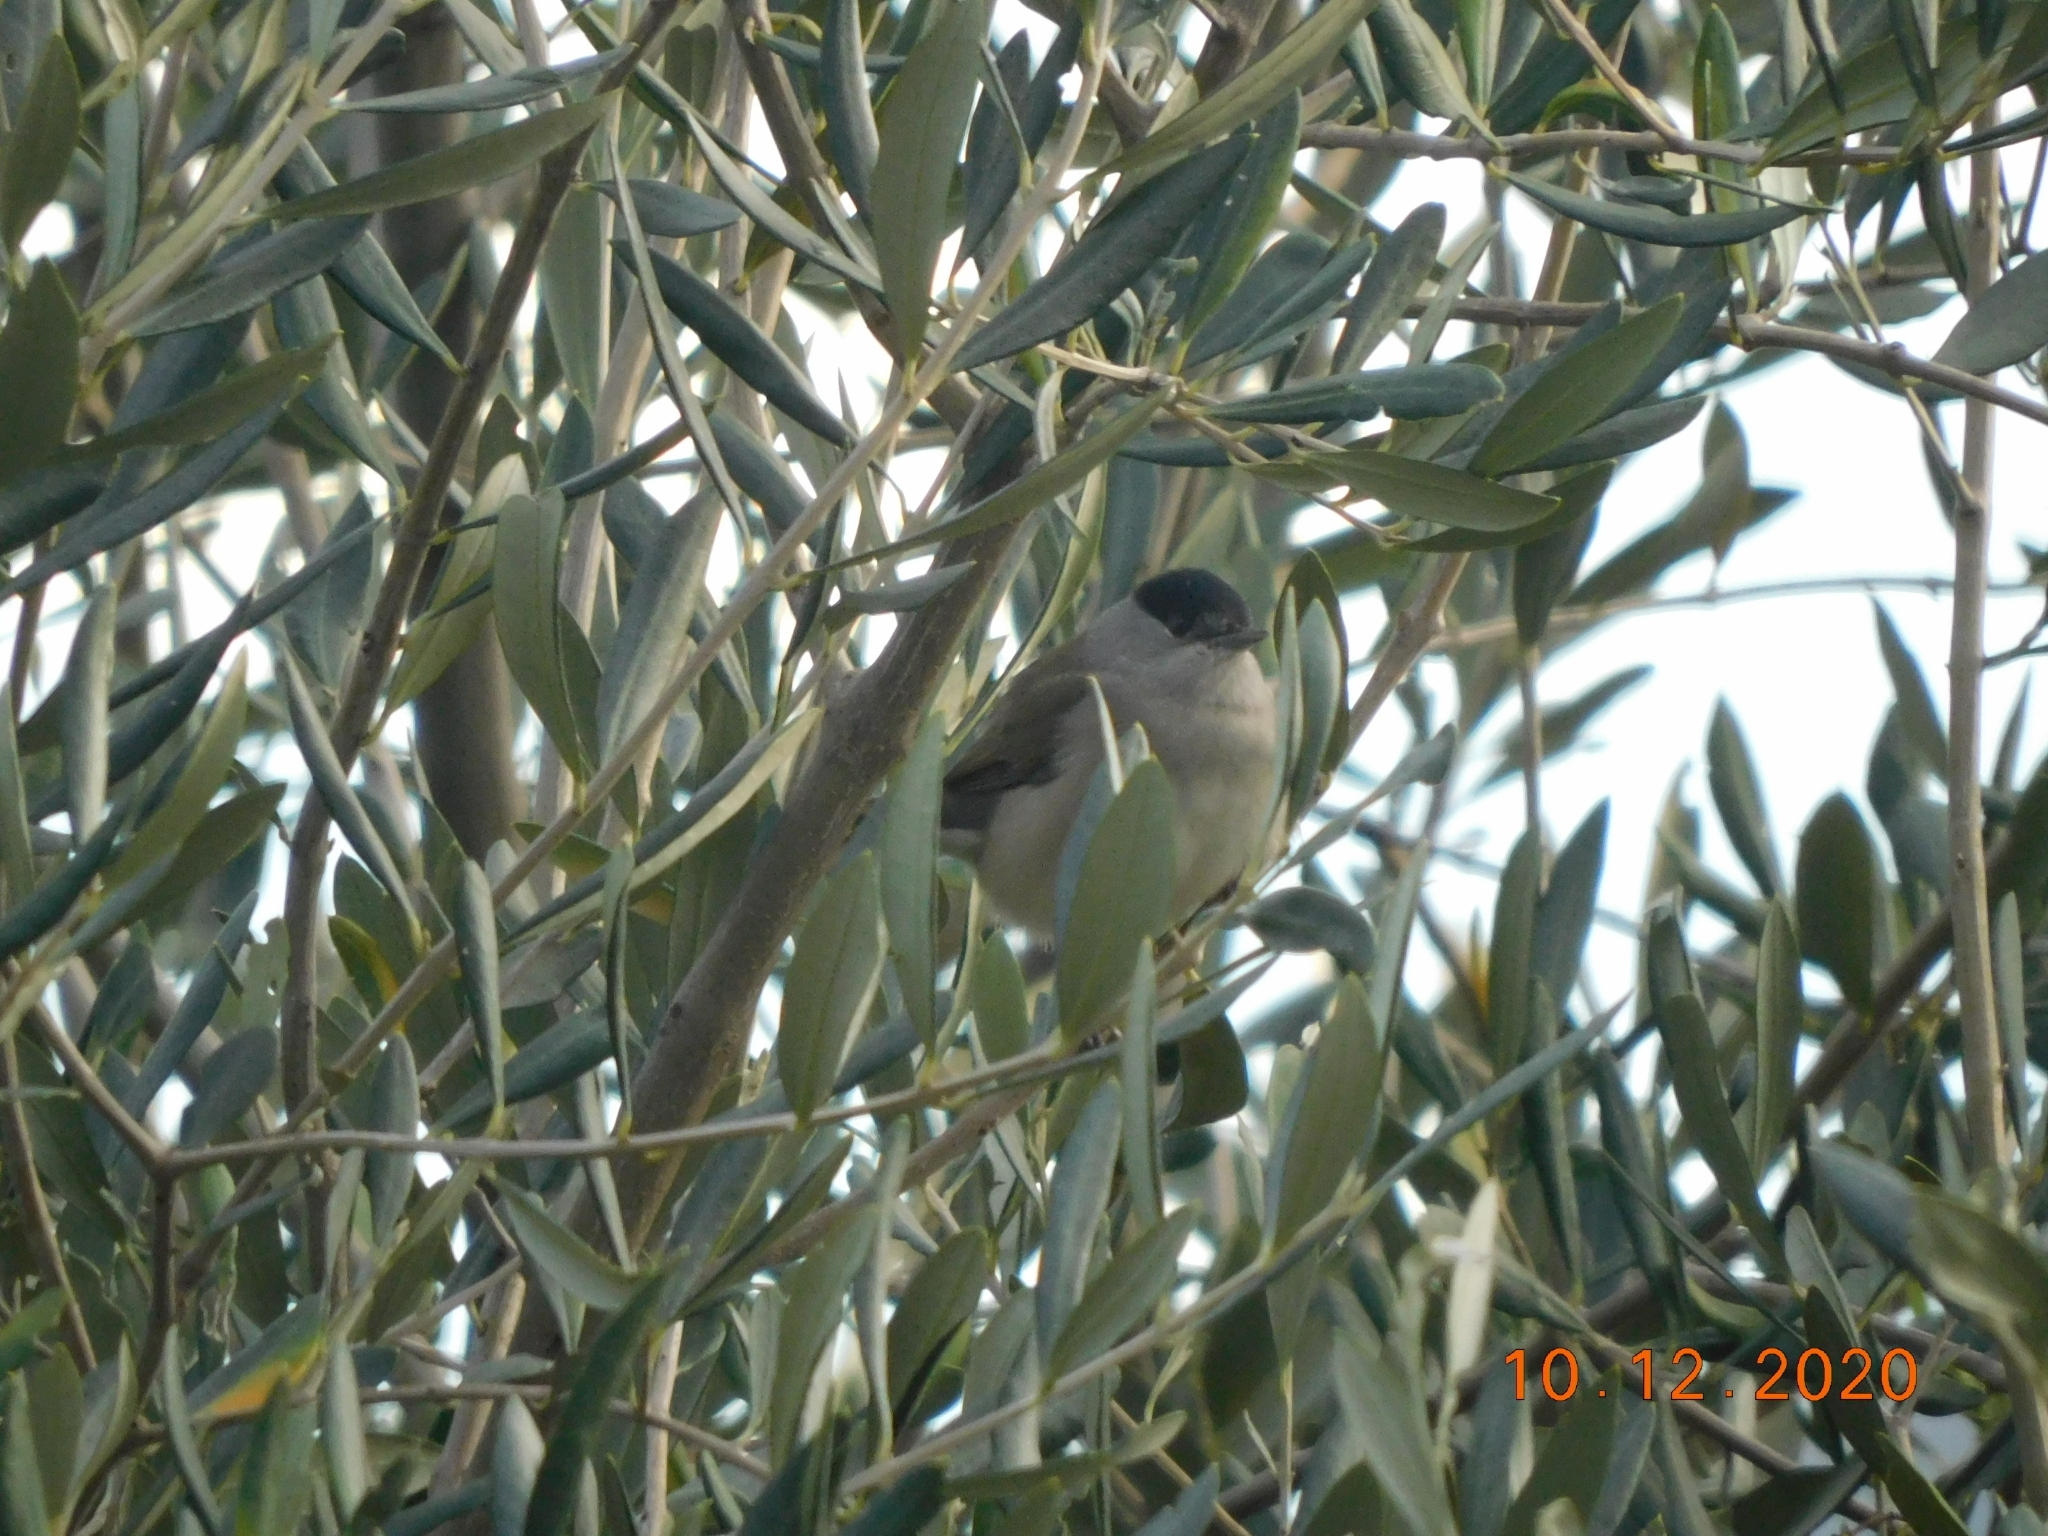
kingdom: Animalia
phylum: Chordata
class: Aves
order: Passeriformes
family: Sylviidae
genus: Sylvia
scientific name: Sylvia atricapilla
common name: Eurasian blackcap
